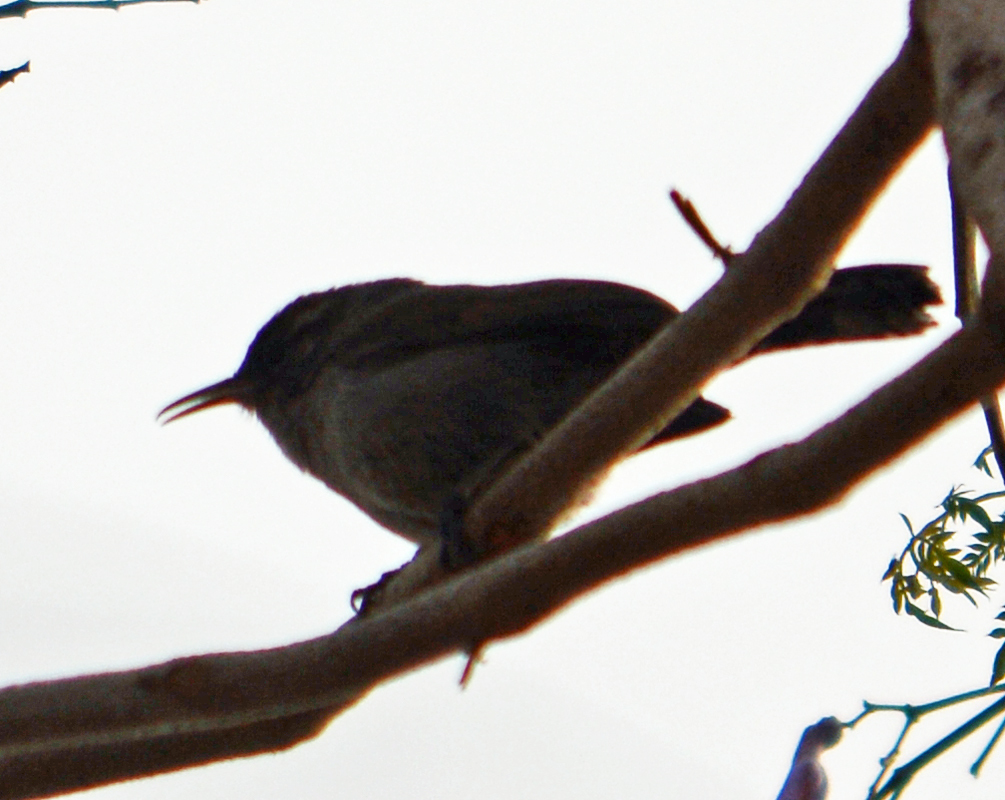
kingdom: Animalia
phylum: Chordata
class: Aves
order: Passeriformes
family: Troglodytidae
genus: Thryomanes
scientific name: Thryomanes bewickii
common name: Bewick's wren
